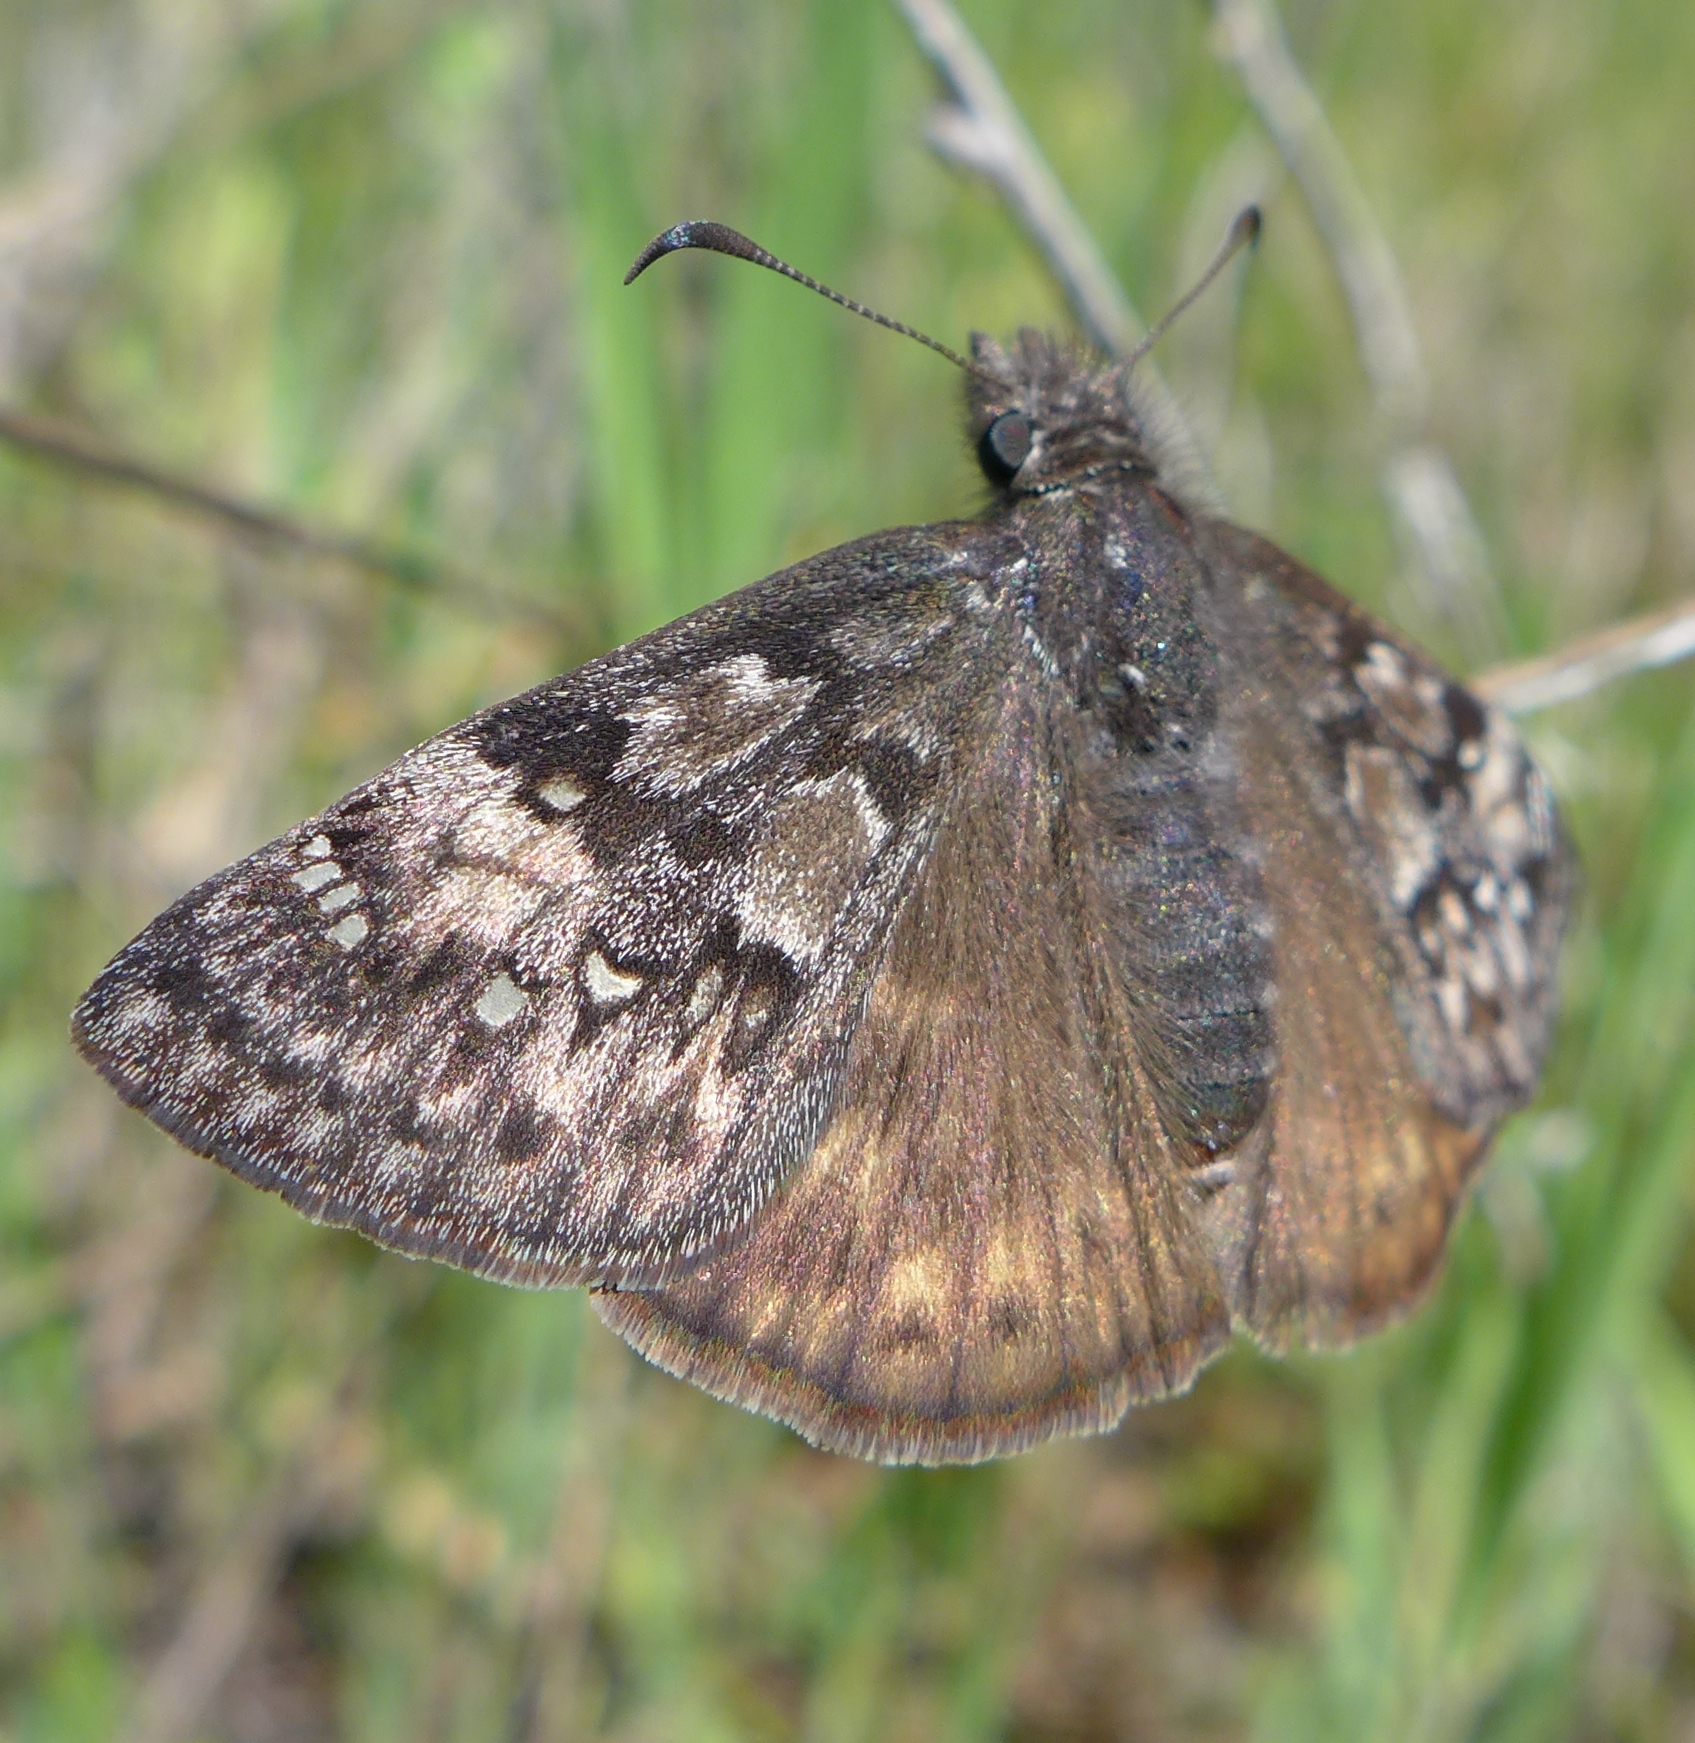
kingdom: Animalia
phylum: Arthropoda
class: Insecta
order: Lepidoptera
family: Hesperiidae
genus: Erynnis
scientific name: Erynnis propertius
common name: Propertius duskywing
